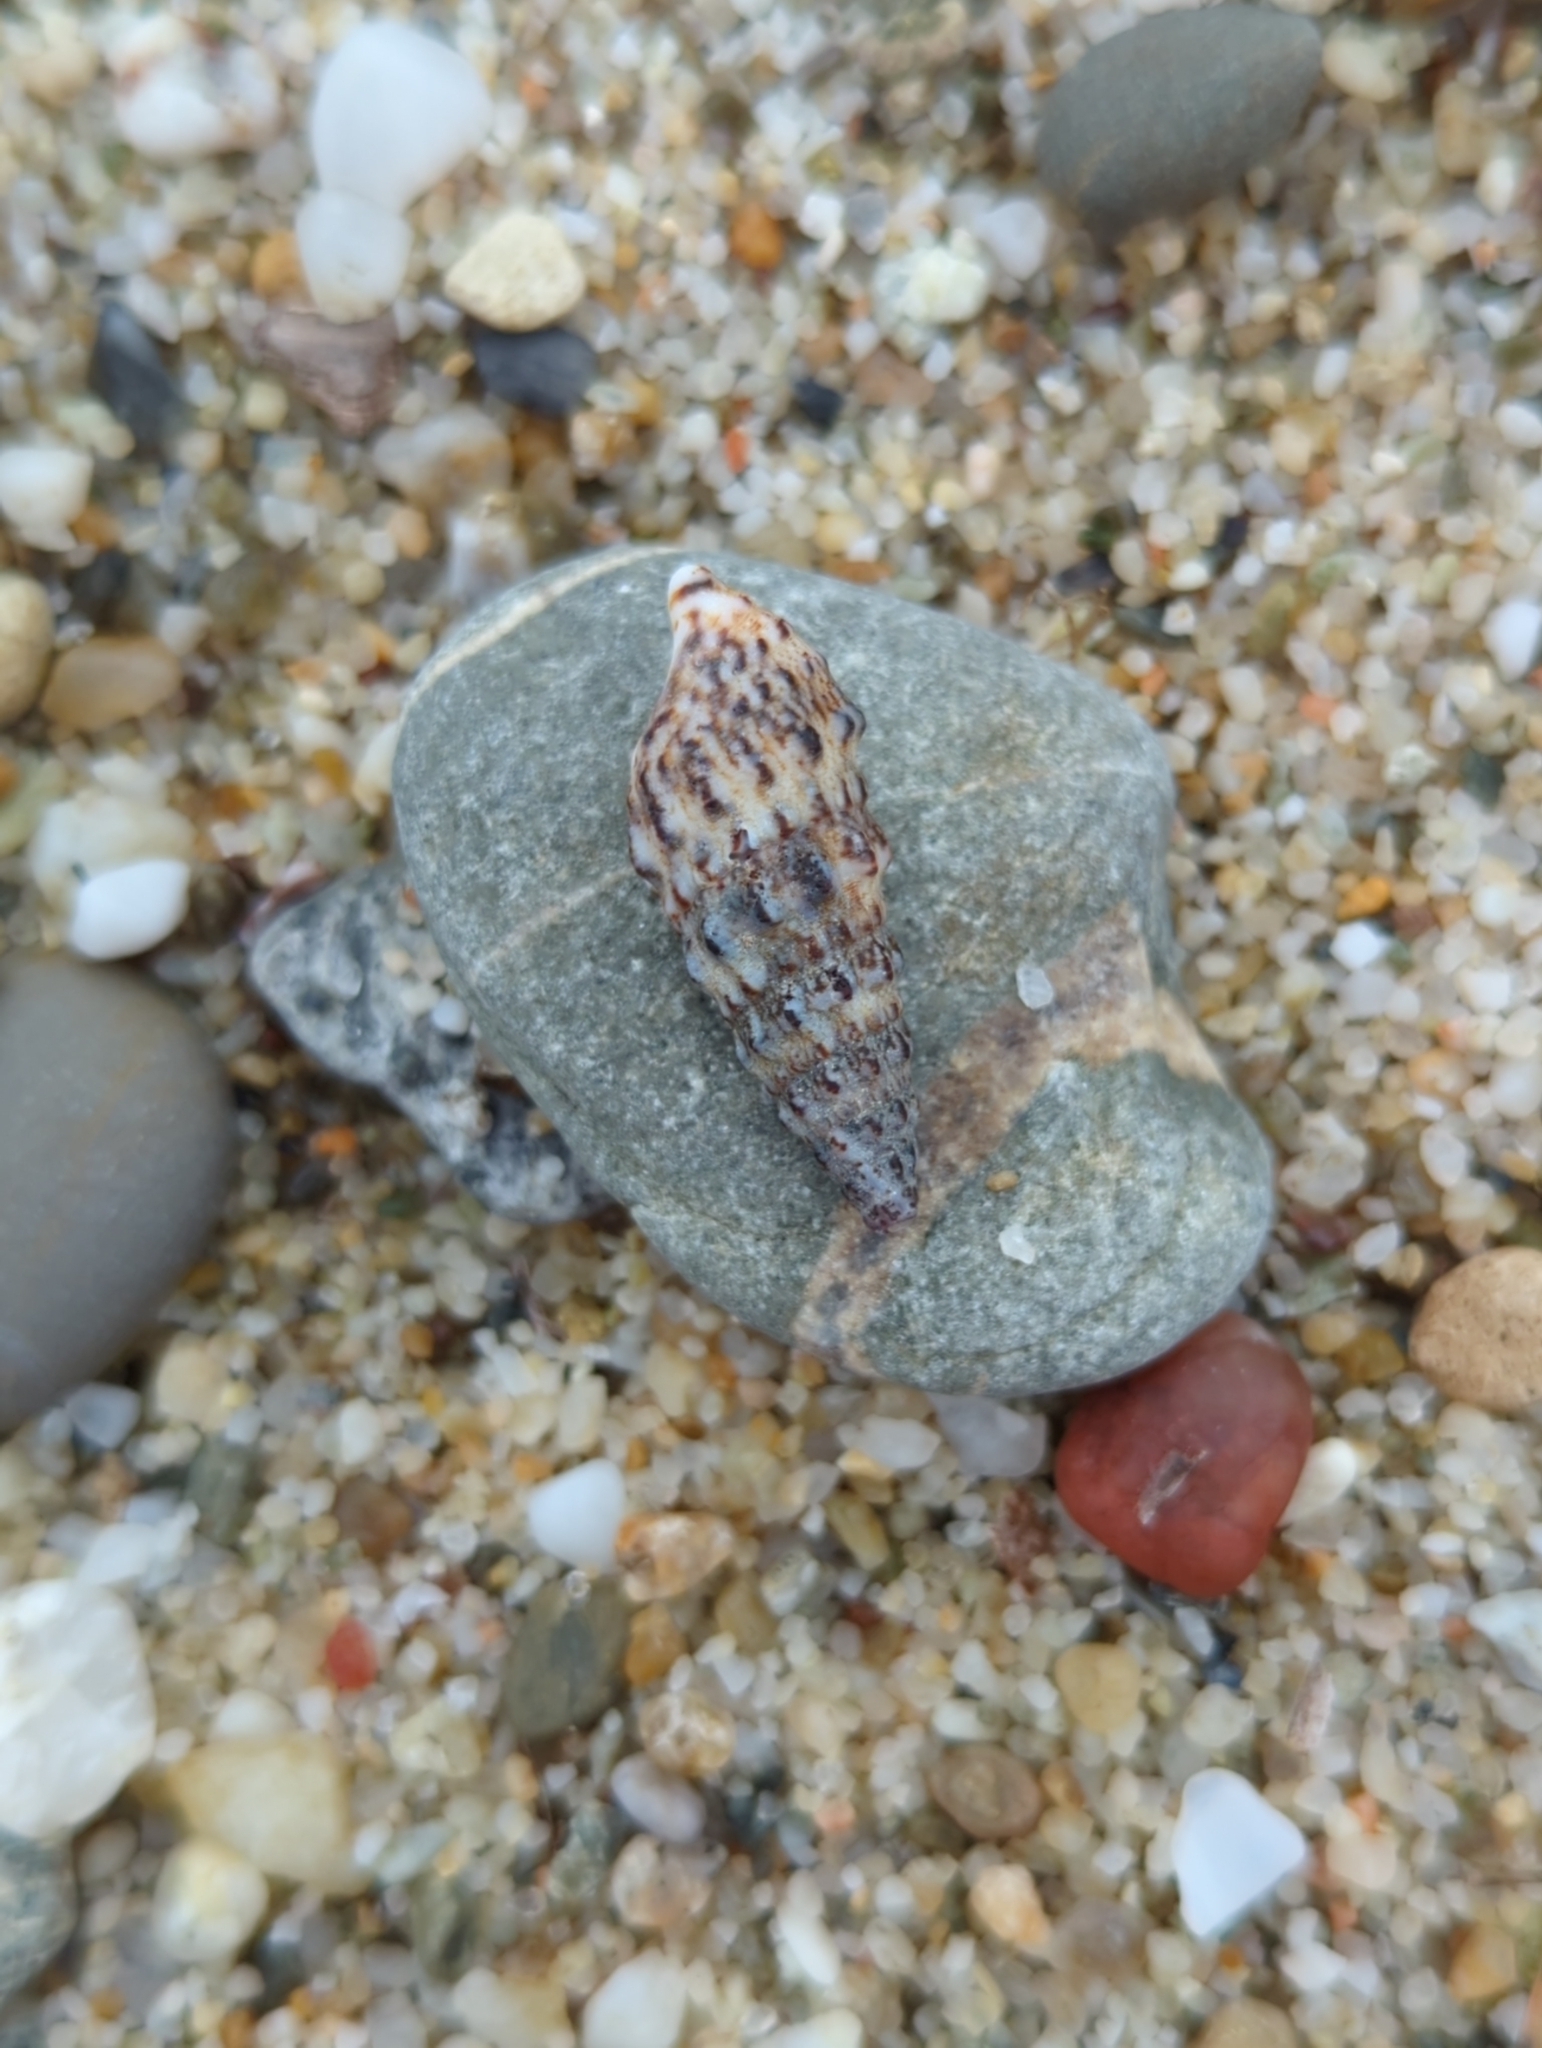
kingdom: Animalia
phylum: Mollusca
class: Gastropoda
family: Cerithiidae
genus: Cerithium
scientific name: Cerithium vulgatum
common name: European cerith
